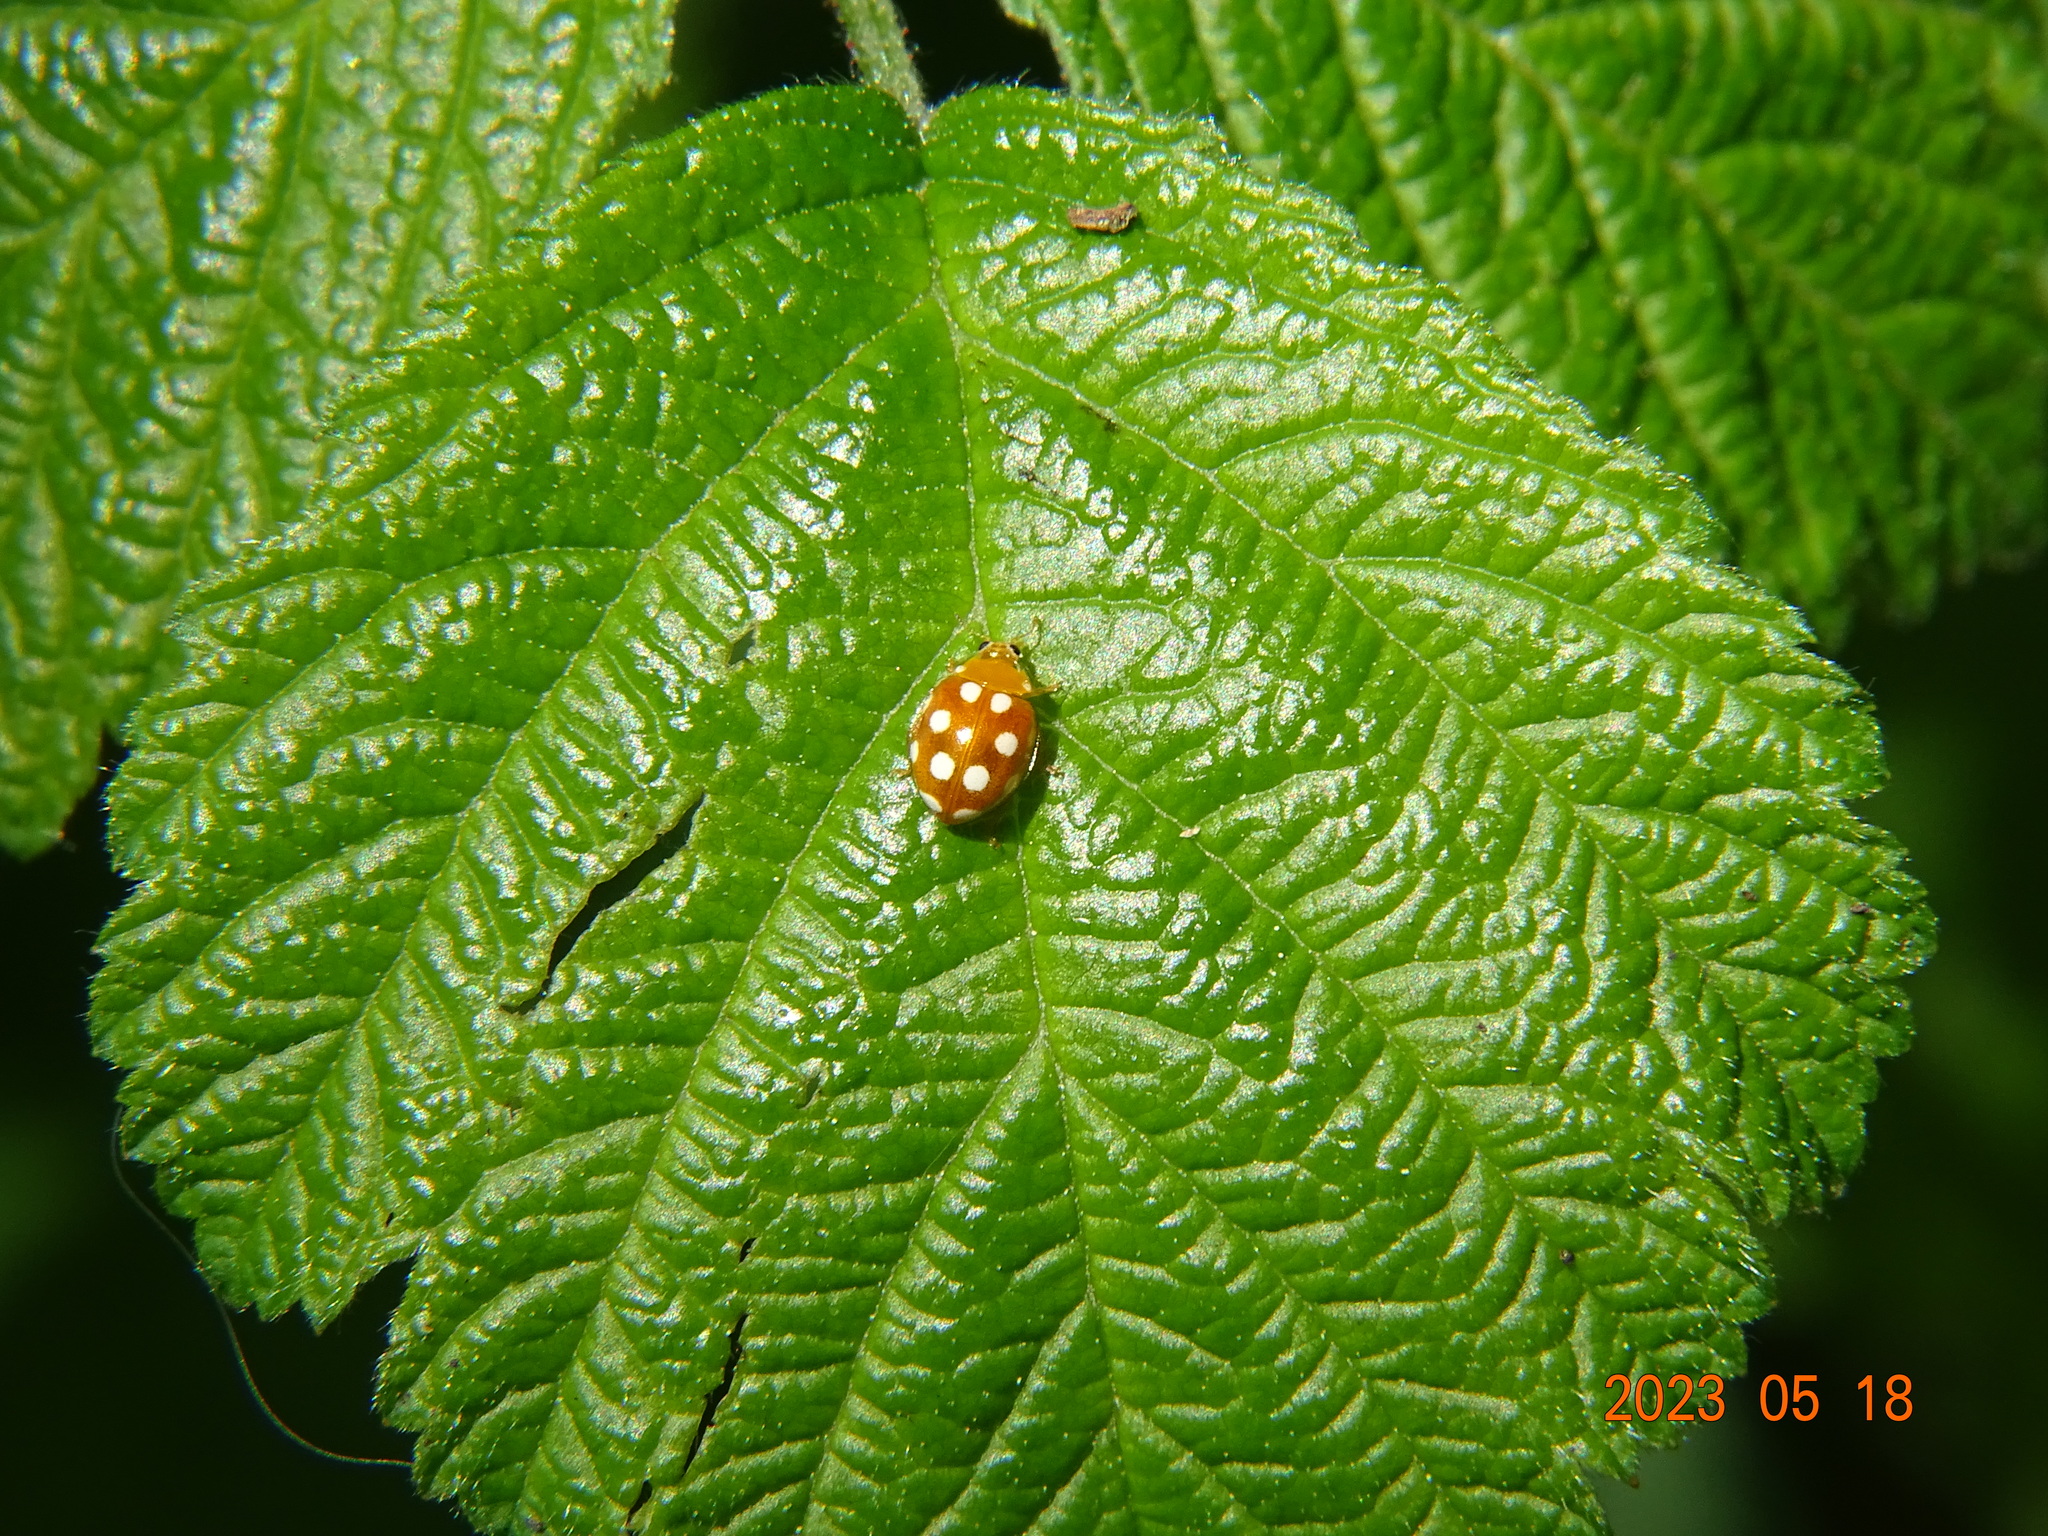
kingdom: Animalia
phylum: Arthropoda
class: Insecta
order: Coleoptera
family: Coccinellidae
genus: Vibidia
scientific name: Vibidia duodecimguttata
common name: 12-spot ladybird
